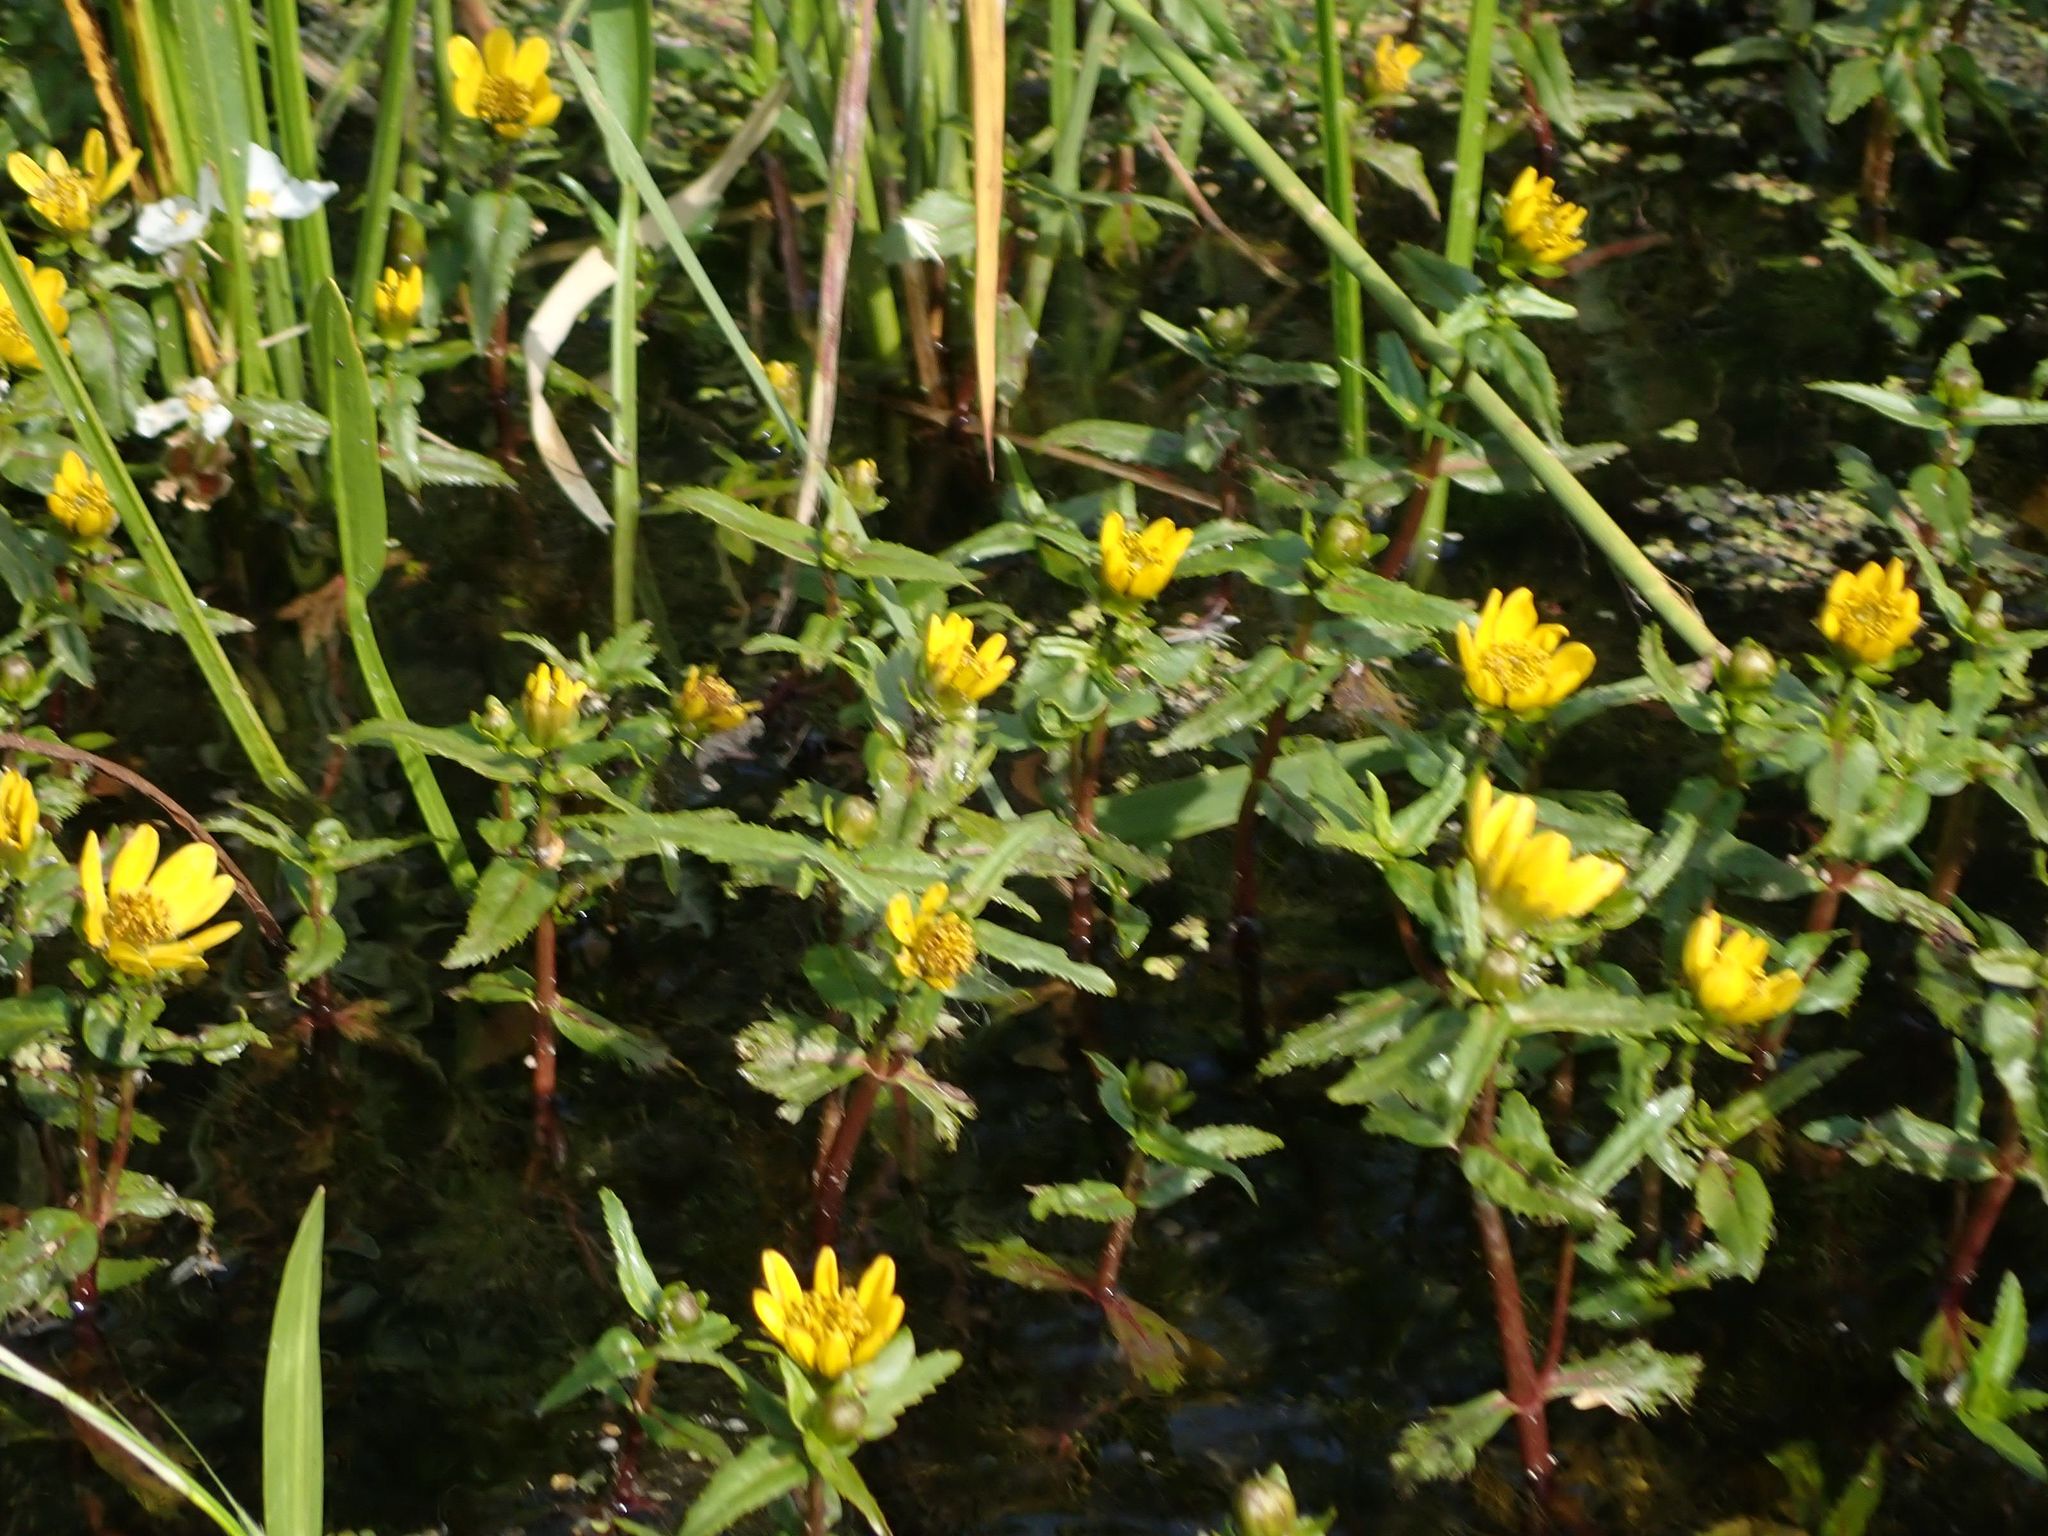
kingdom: Plantae
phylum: Tracheophyta
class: Magnoliopsida
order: Asterales
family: Asteraceae
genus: Bidens
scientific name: Bidens beckii
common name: Beck's beggarticks
